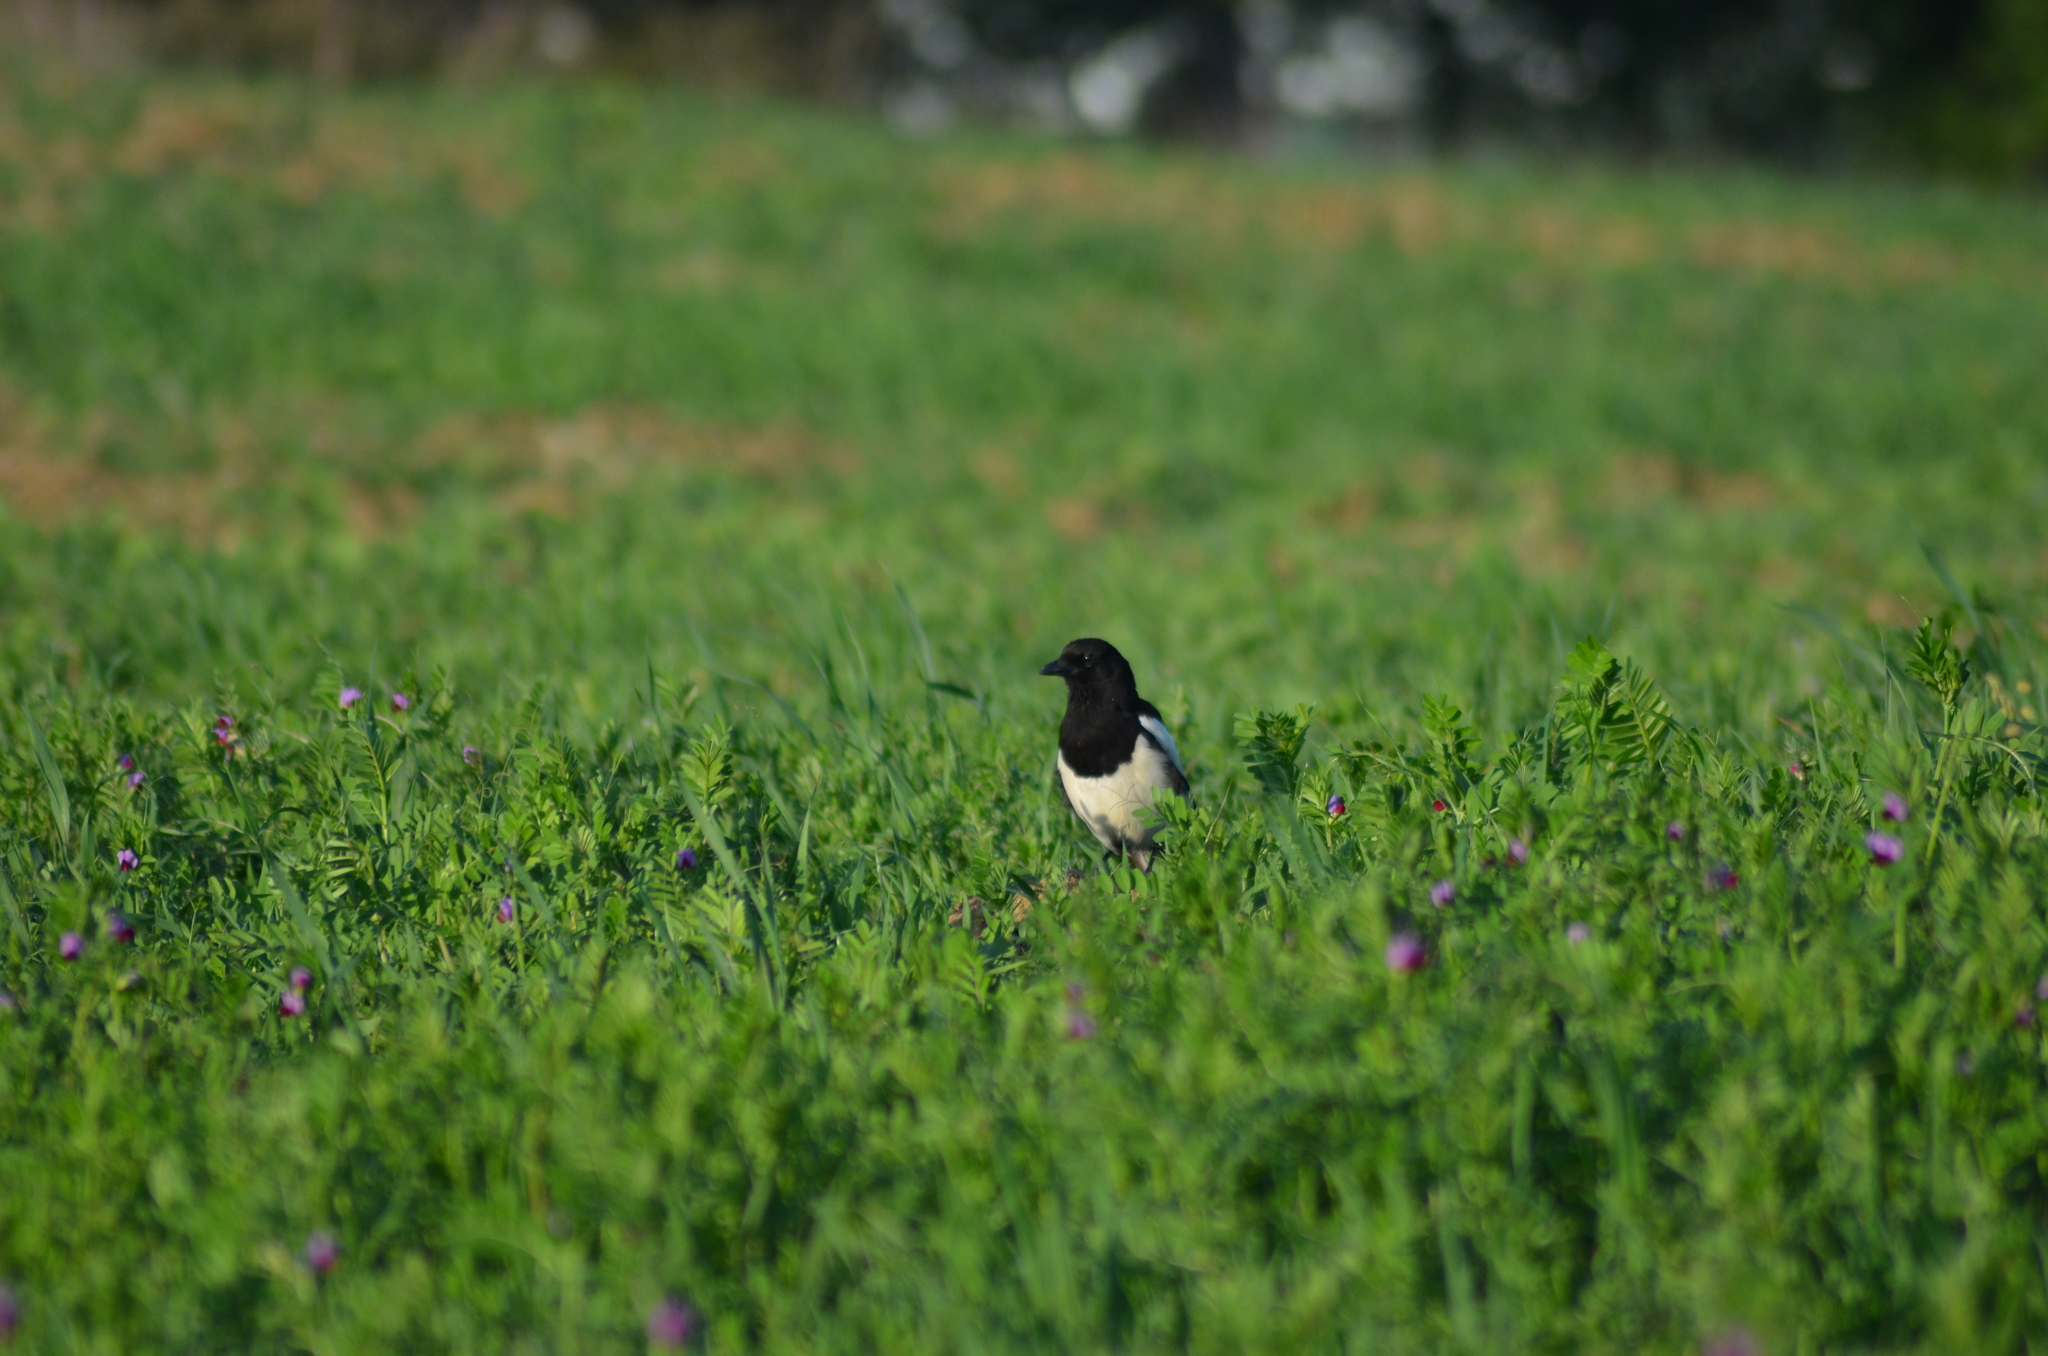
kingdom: Animalia
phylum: Chordata
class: Aves
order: Passeriformes
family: Corvidae
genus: Pica
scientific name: Pica pica
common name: Eurasian magpie
